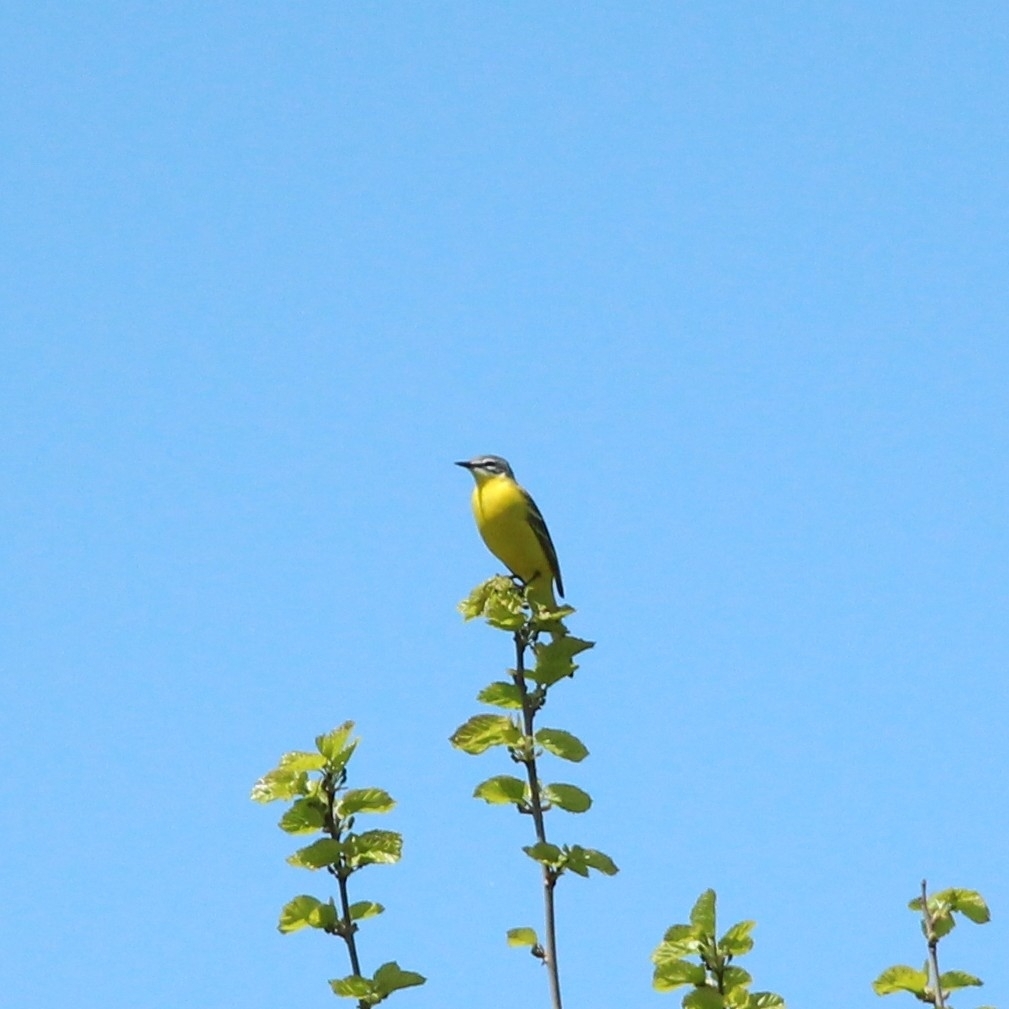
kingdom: Animalia
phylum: Chordata
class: Aves
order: Passeriformes
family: Motacillidae
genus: Motacilla
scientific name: Motacilla flava
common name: Western yellow wagtail
